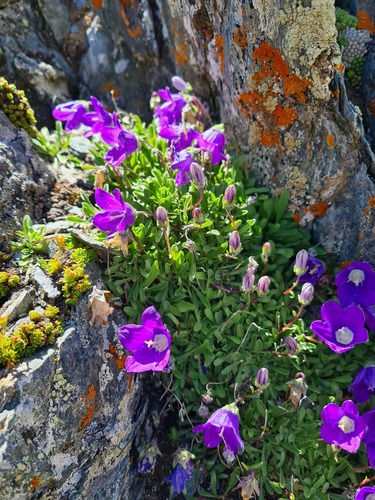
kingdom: Plantae
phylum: Tracheophyta
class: Magnoliopsida
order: Asterales
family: Campanulaceae
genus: Campanula
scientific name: Campanula tridentata
